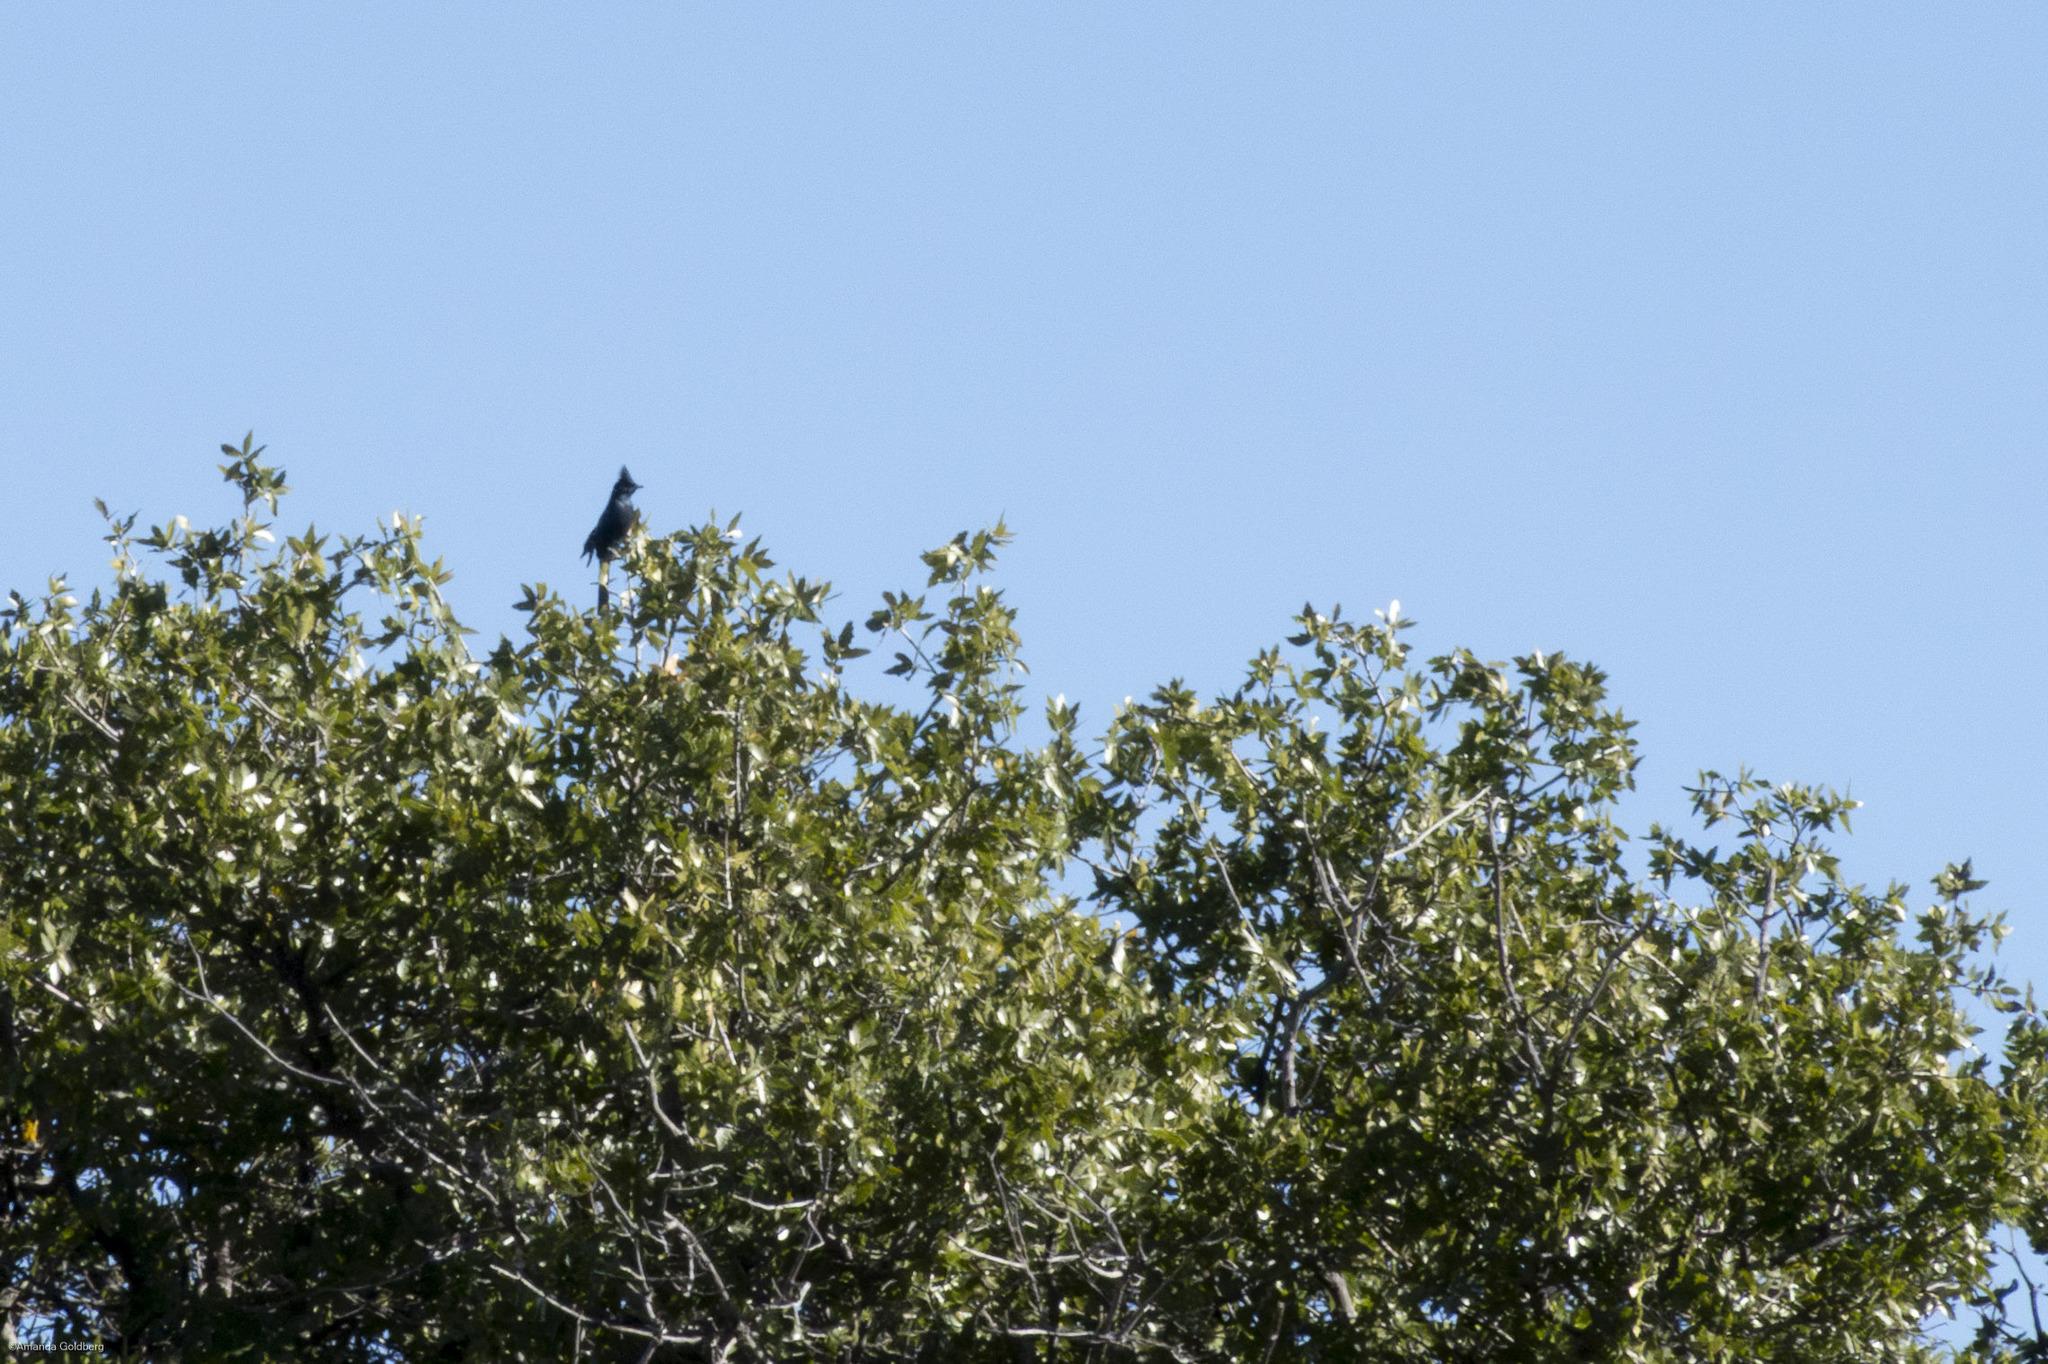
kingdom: Animalia
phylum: Chordata
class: Aves
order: Passeriformes
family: Ptilogonatidae
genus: Phainopepla
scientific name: Phainopepla nitens
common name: Phainopepla
